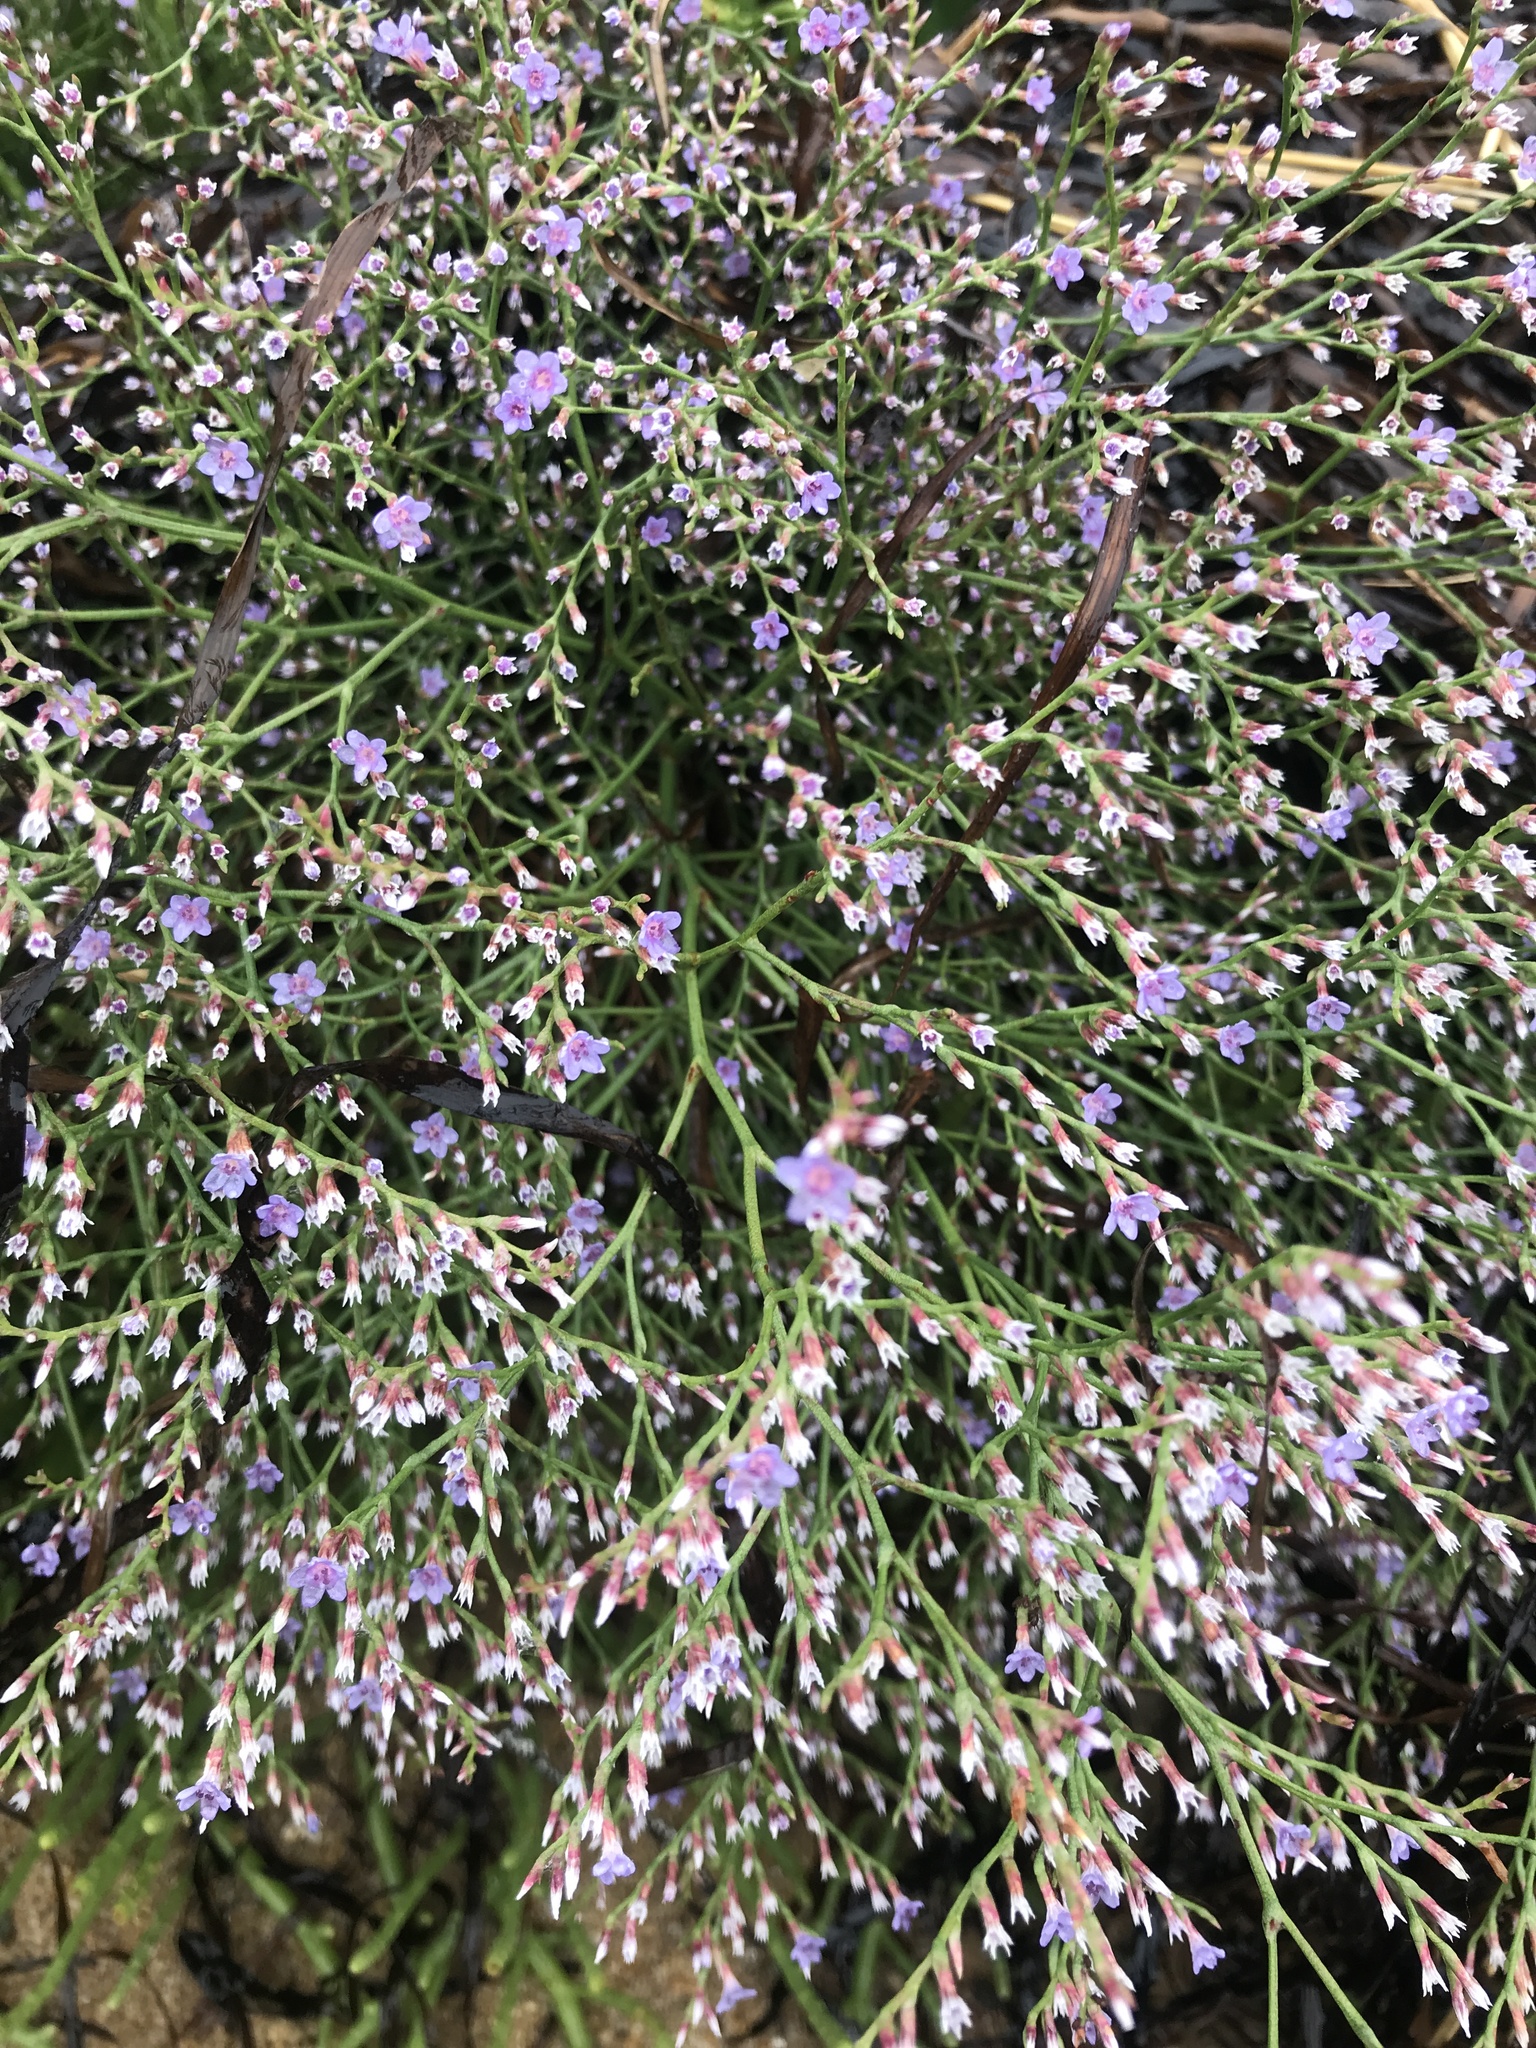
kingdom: Plantae
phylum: Tracheophyta
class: Magnoliopsida
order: Caryophyllales
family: Plumbaginaceae
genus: Limonium
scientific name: Limonium carolinianum
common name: Carolina sea lavender
